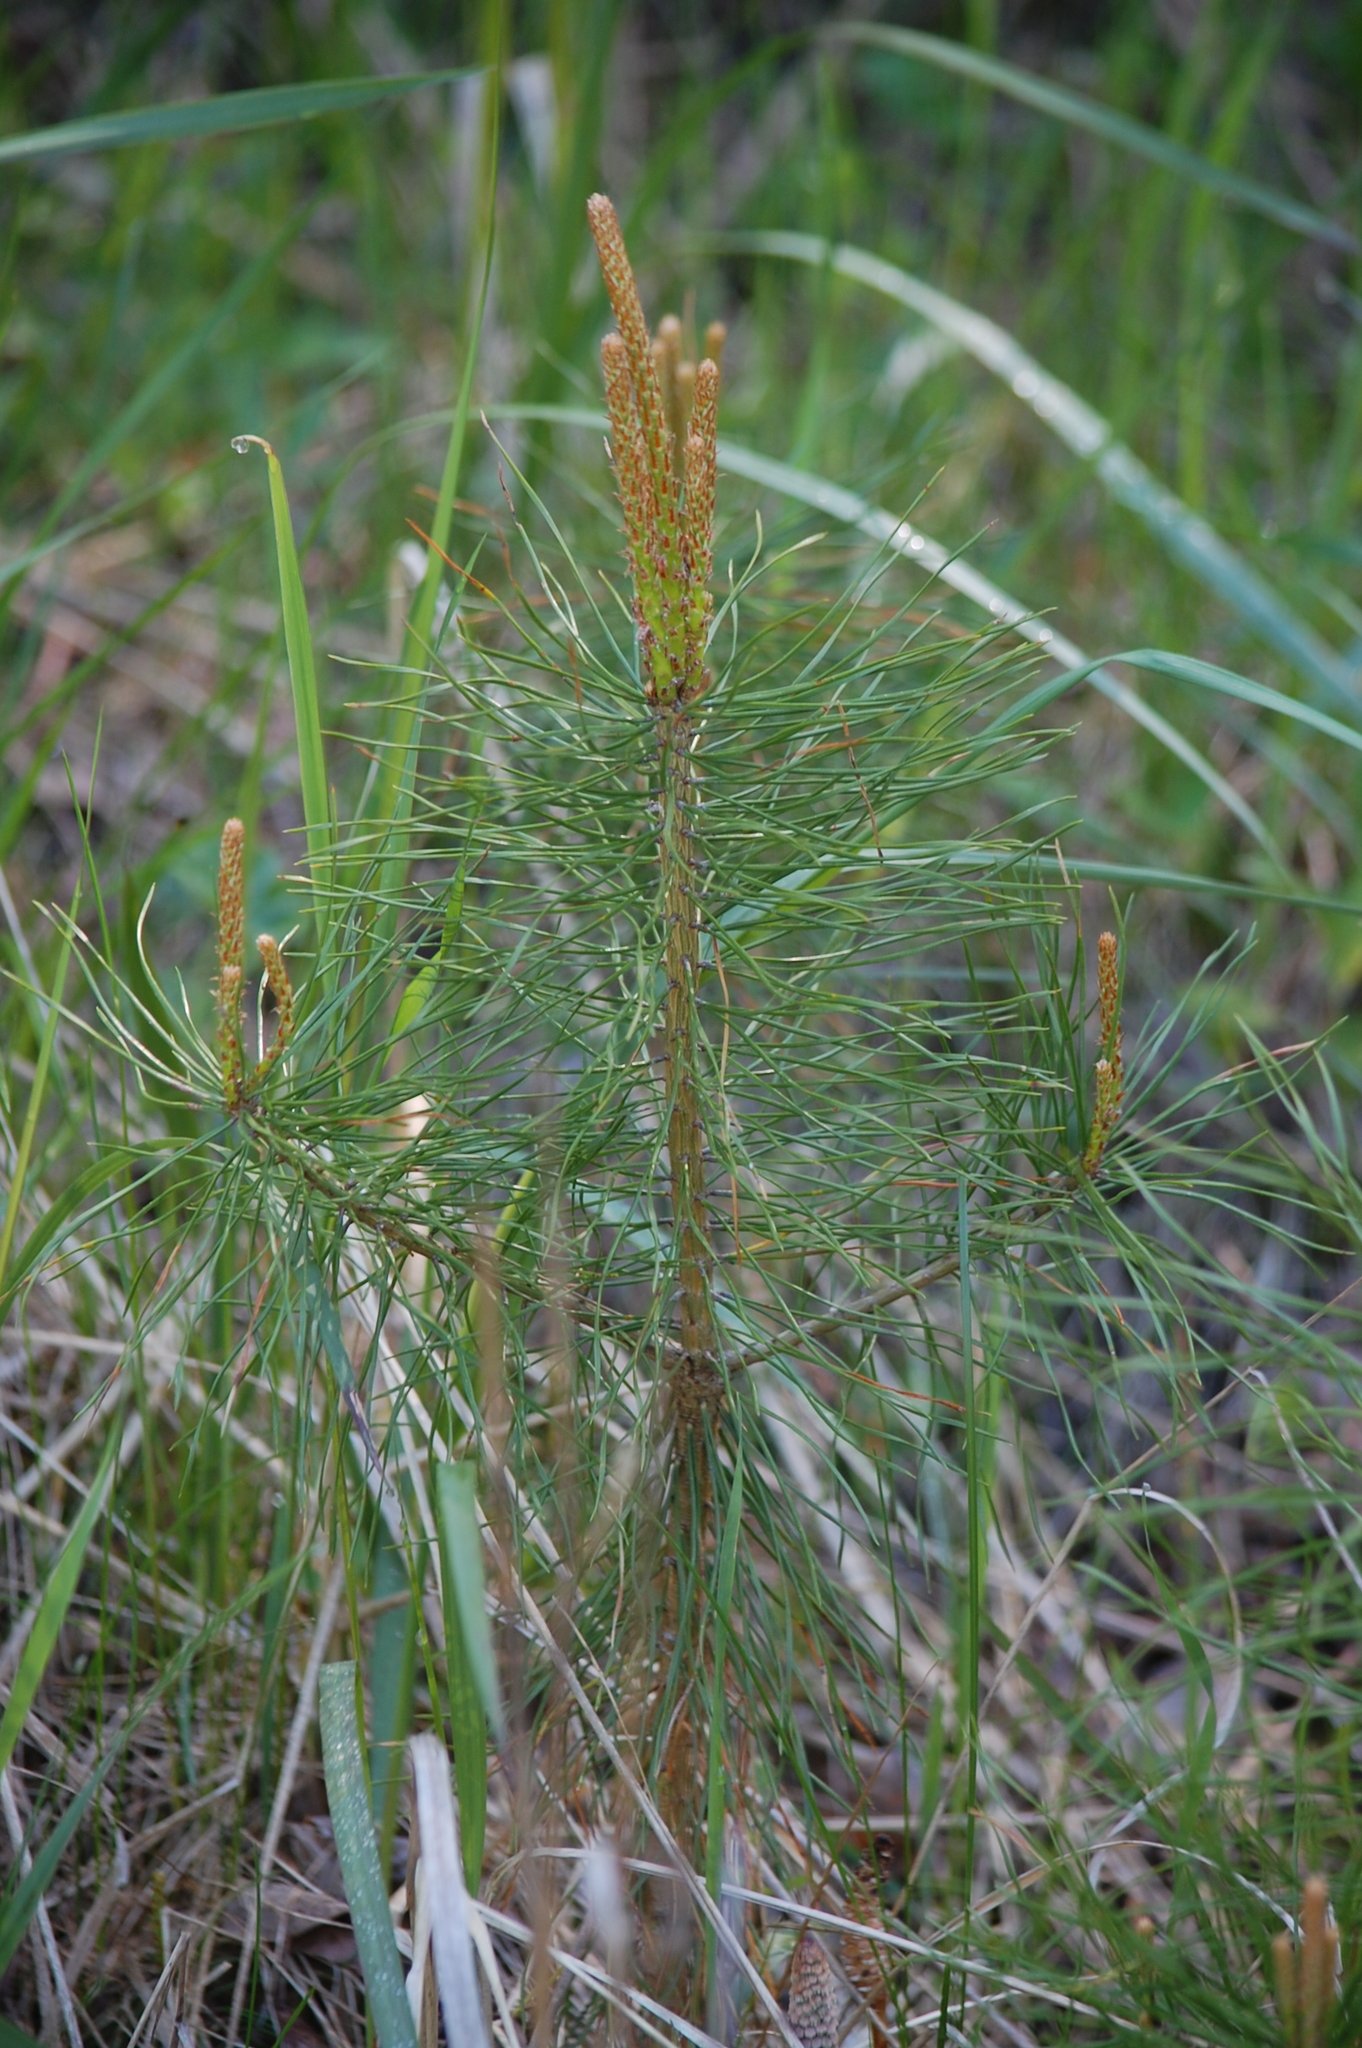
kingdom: Plantae
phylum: Tracheophyta
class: Pinopsida
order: Pinales
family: Pinaceae
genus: Pinus
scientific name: Pinus sylvestris
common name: Scots pine
